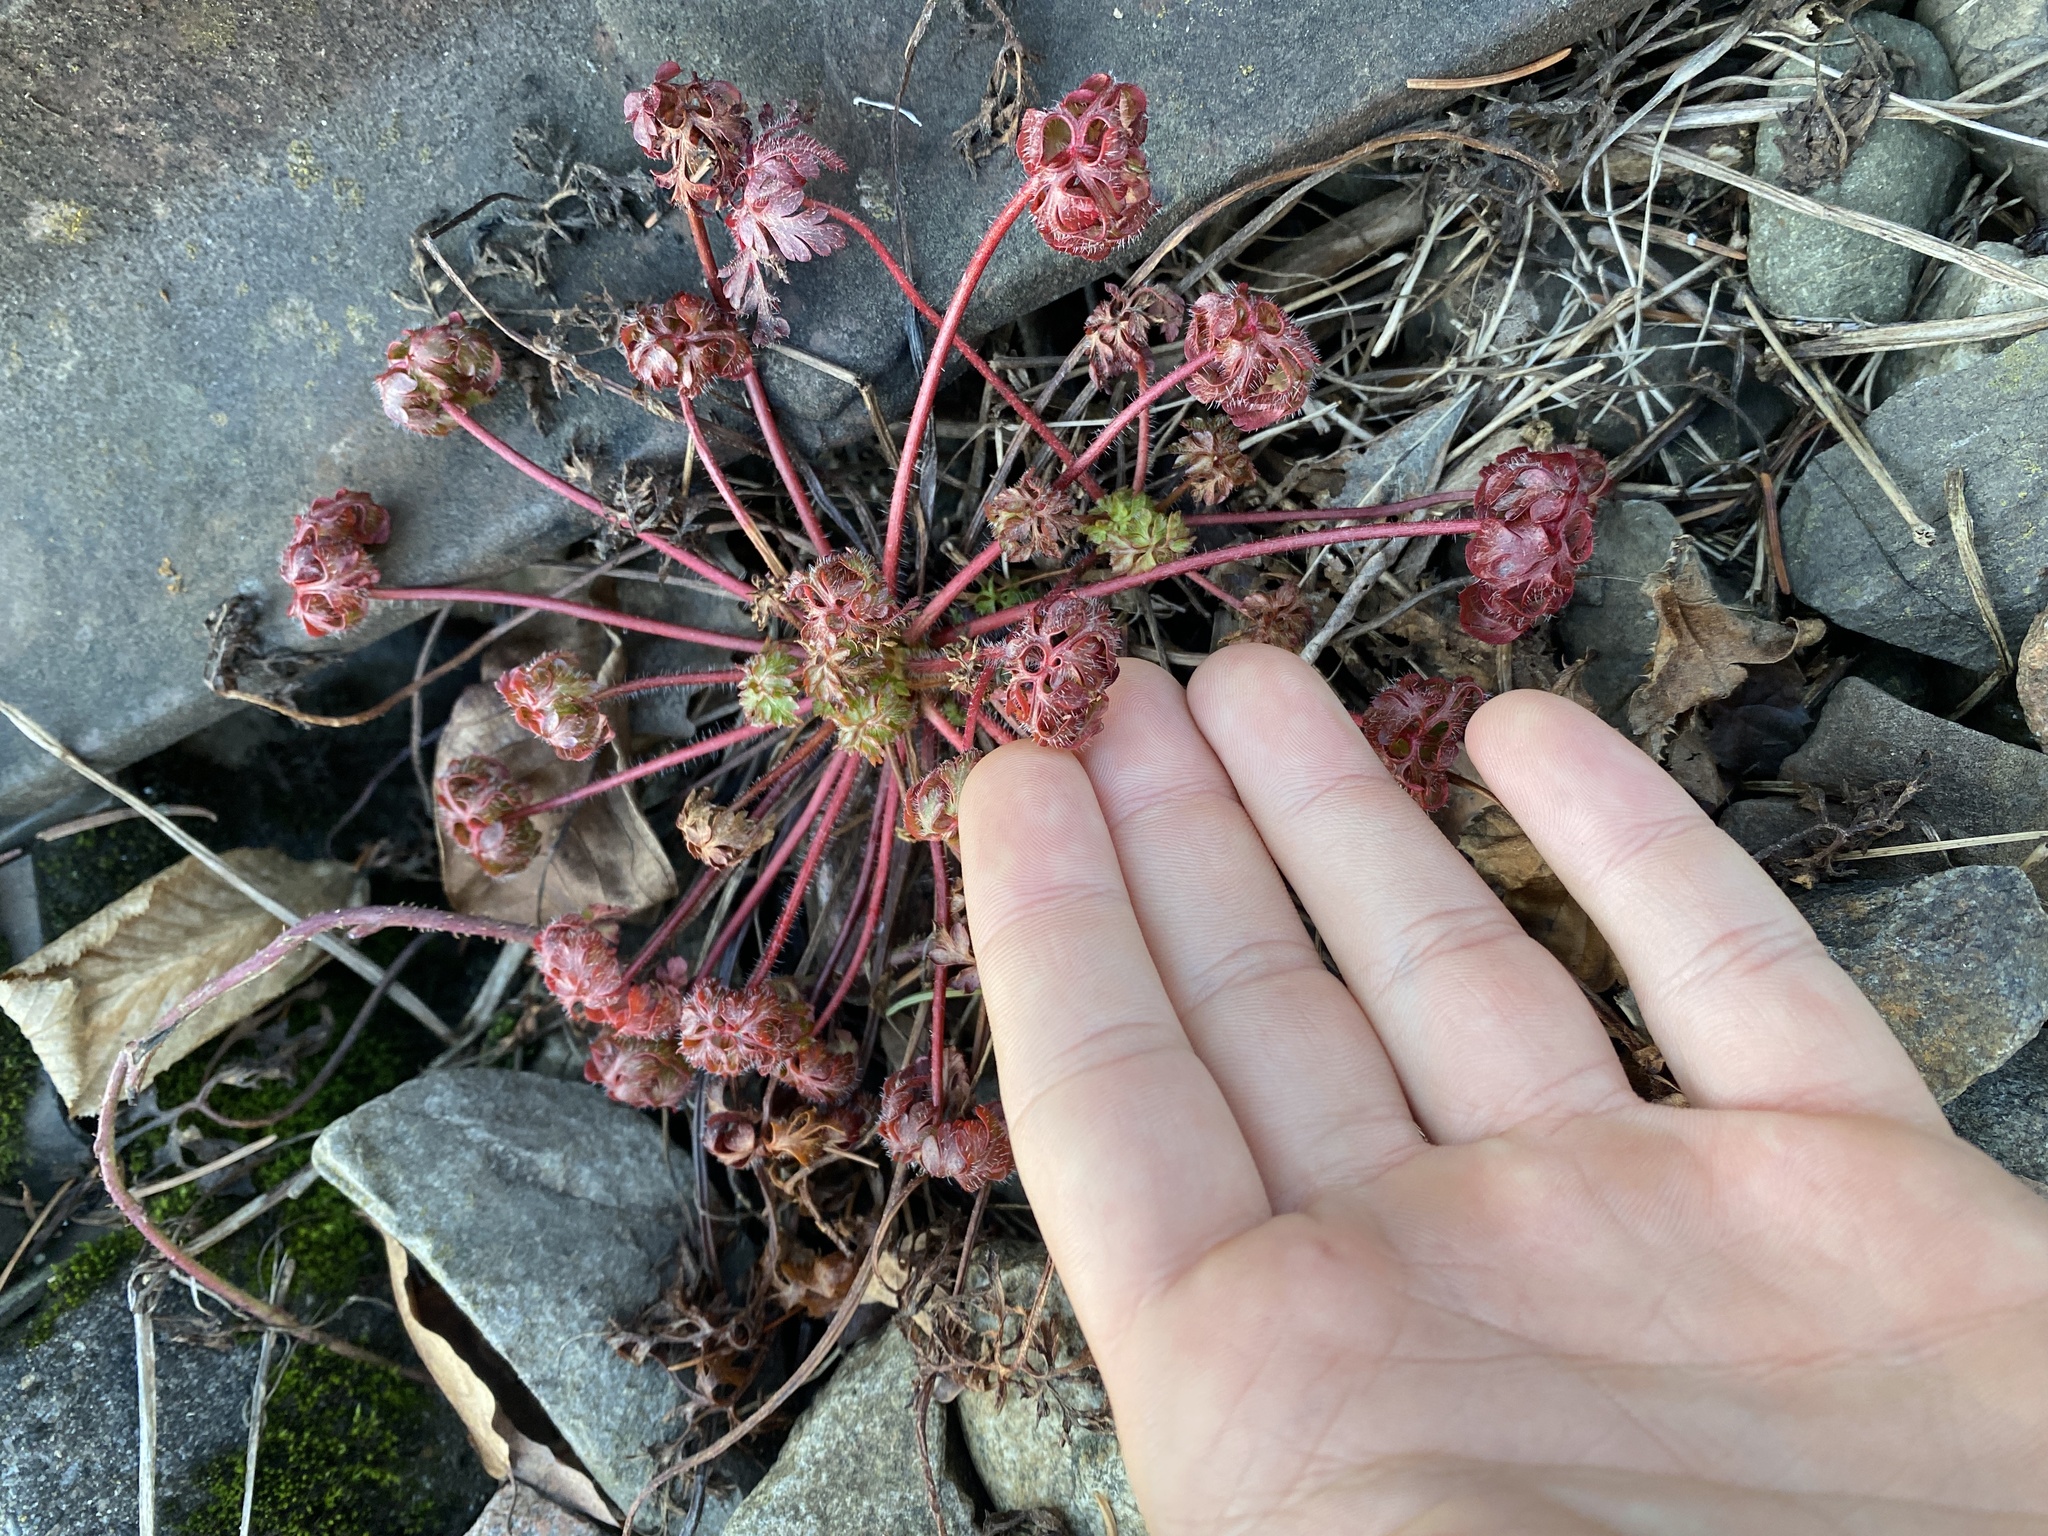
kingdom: Plantae
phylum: Tracheophyta
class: Magnoliopsida
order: Geraniales
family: Geraniaceae
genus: Geranium
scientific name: Geranium robertianum
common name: Herb-robert
